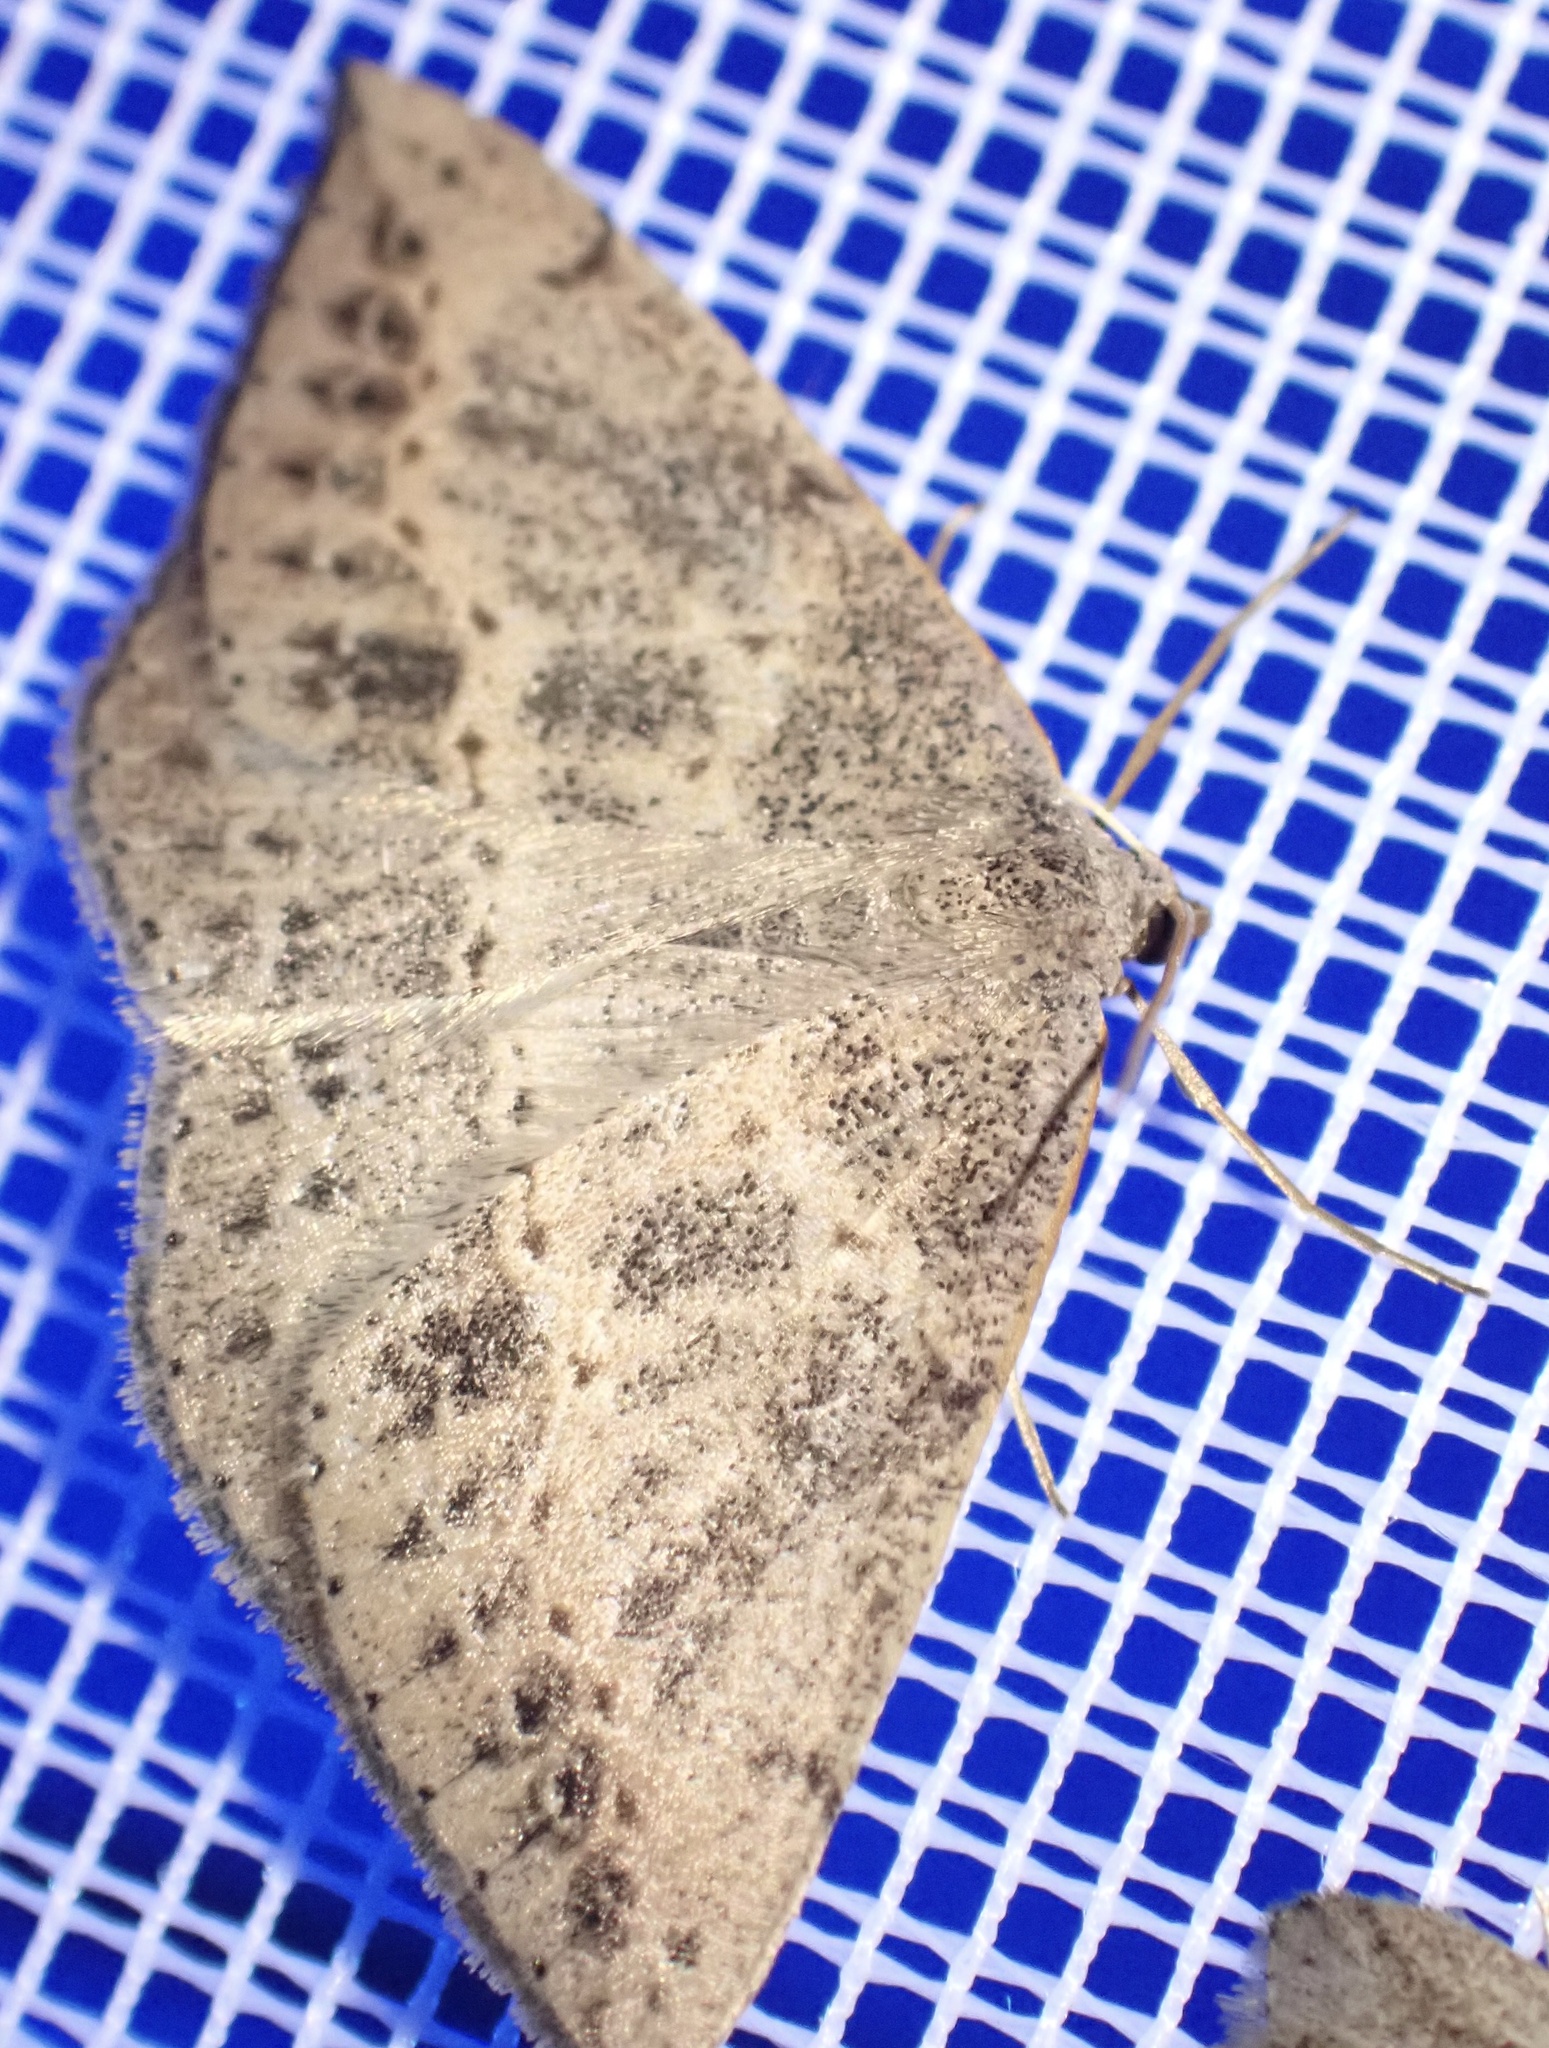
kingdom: Animalia
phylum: Arthropoda
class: Insecta
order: Lepidoptera
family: Geometridae
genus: Taxeotis
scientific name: Taxeotis perlinearia
